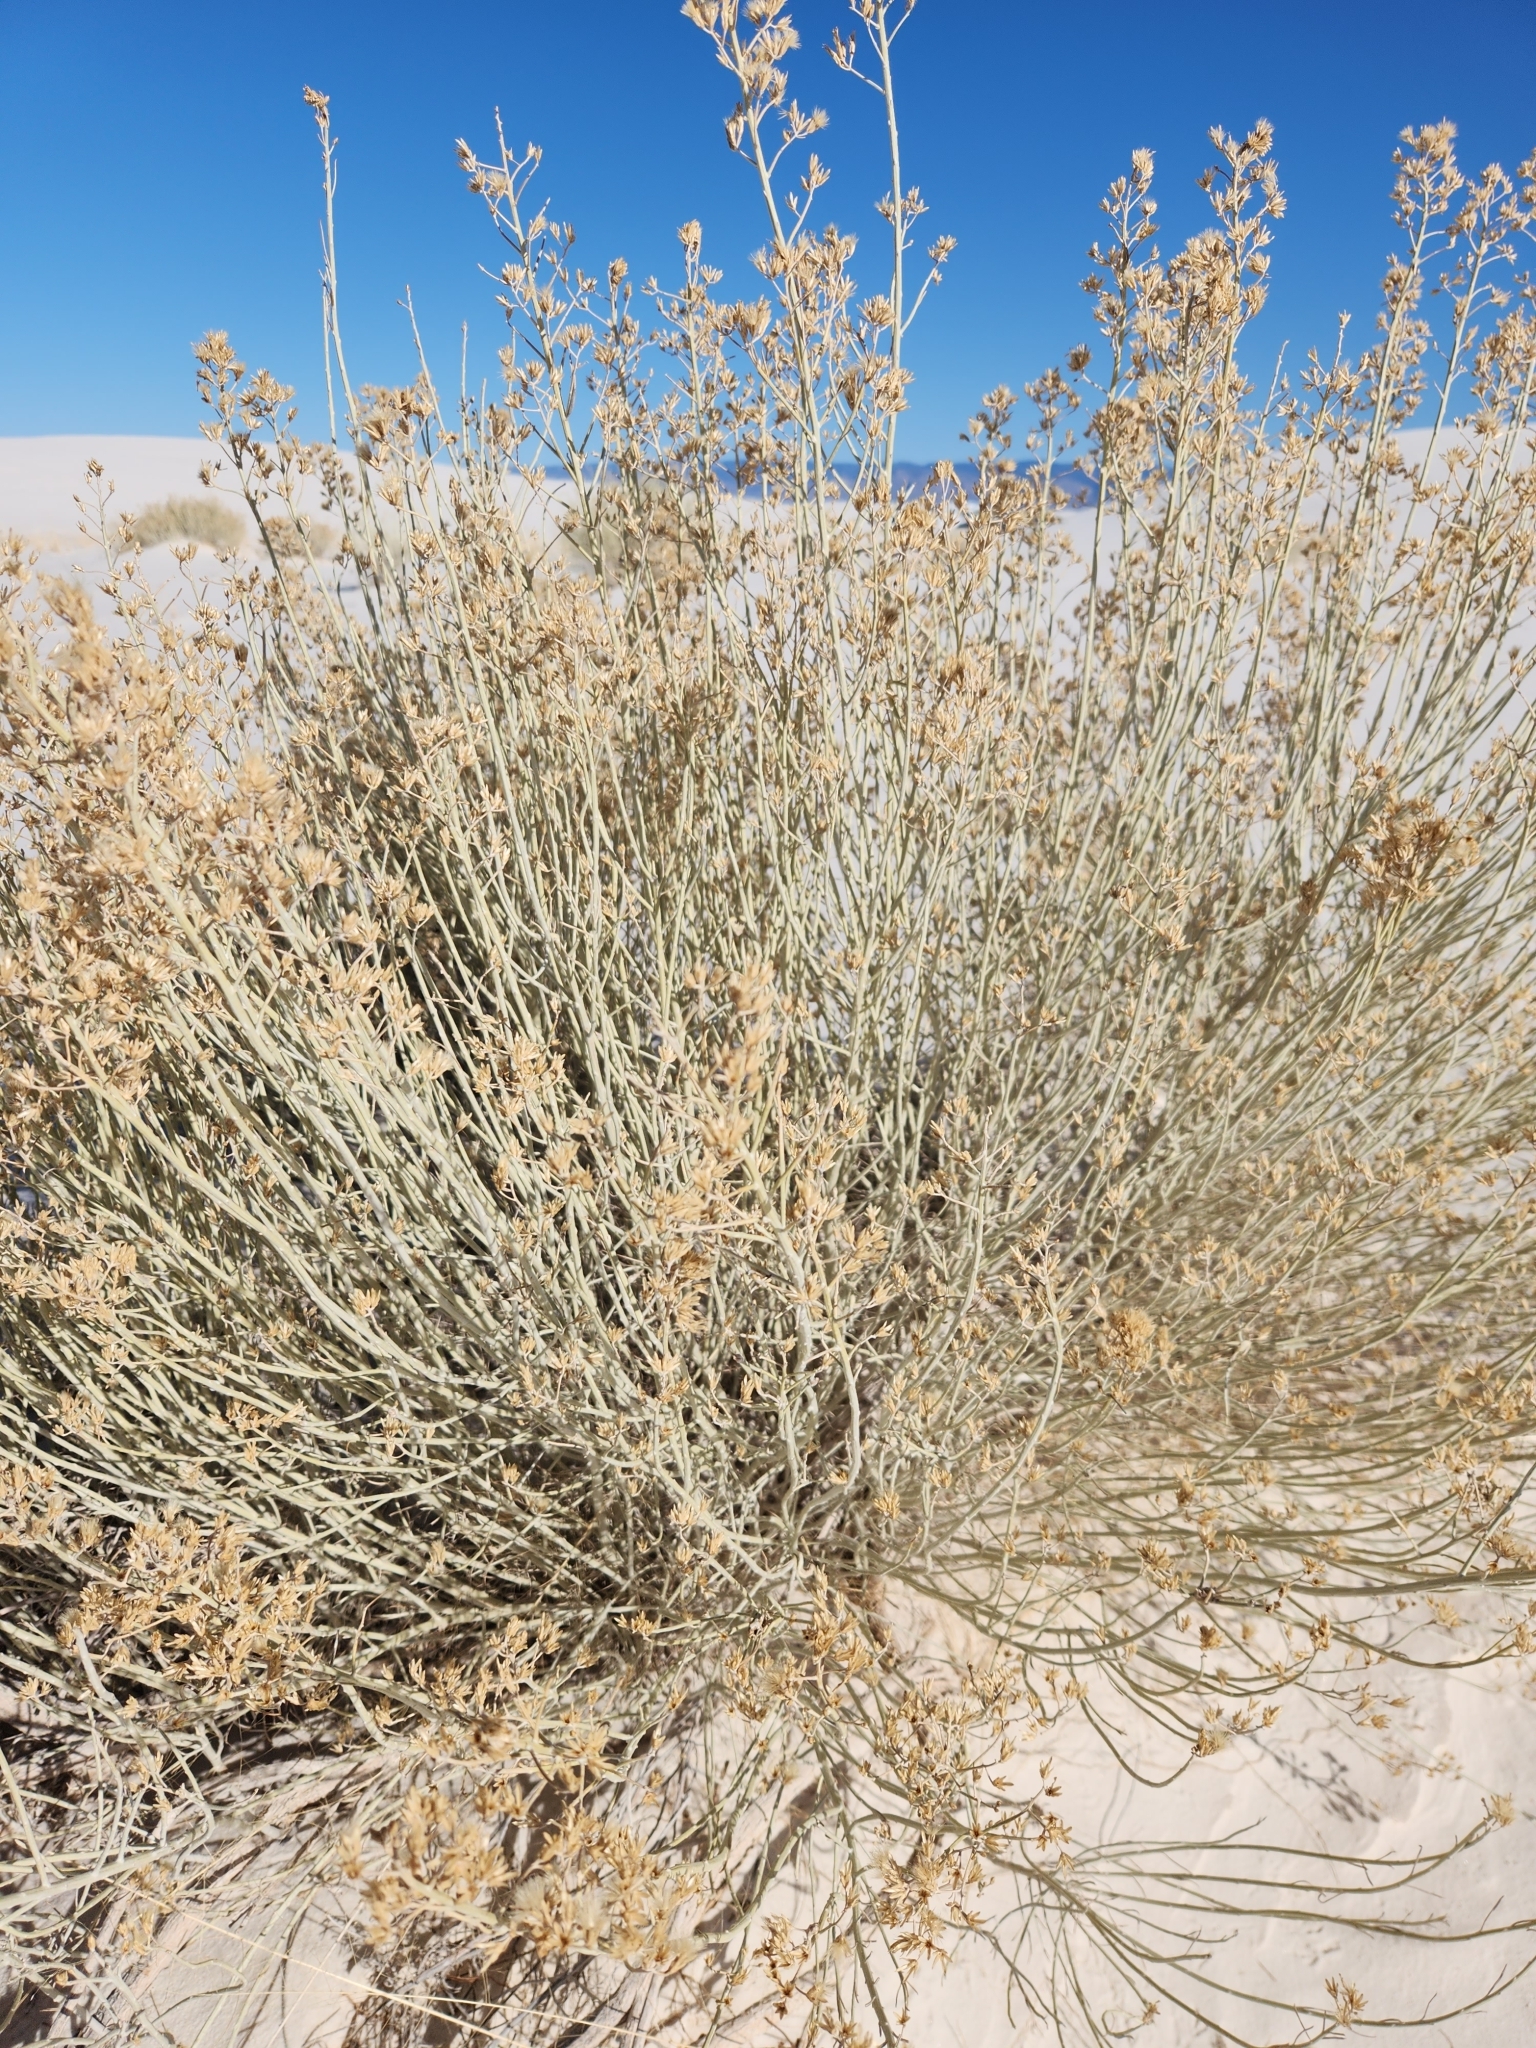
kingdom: Plantae
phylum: Tracheophyta
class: Magnoliopsida
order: Asterales
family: Asteraceae
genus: Ericameria
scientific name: Ericameria nauseosa
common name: Rubber rabbitbrush
